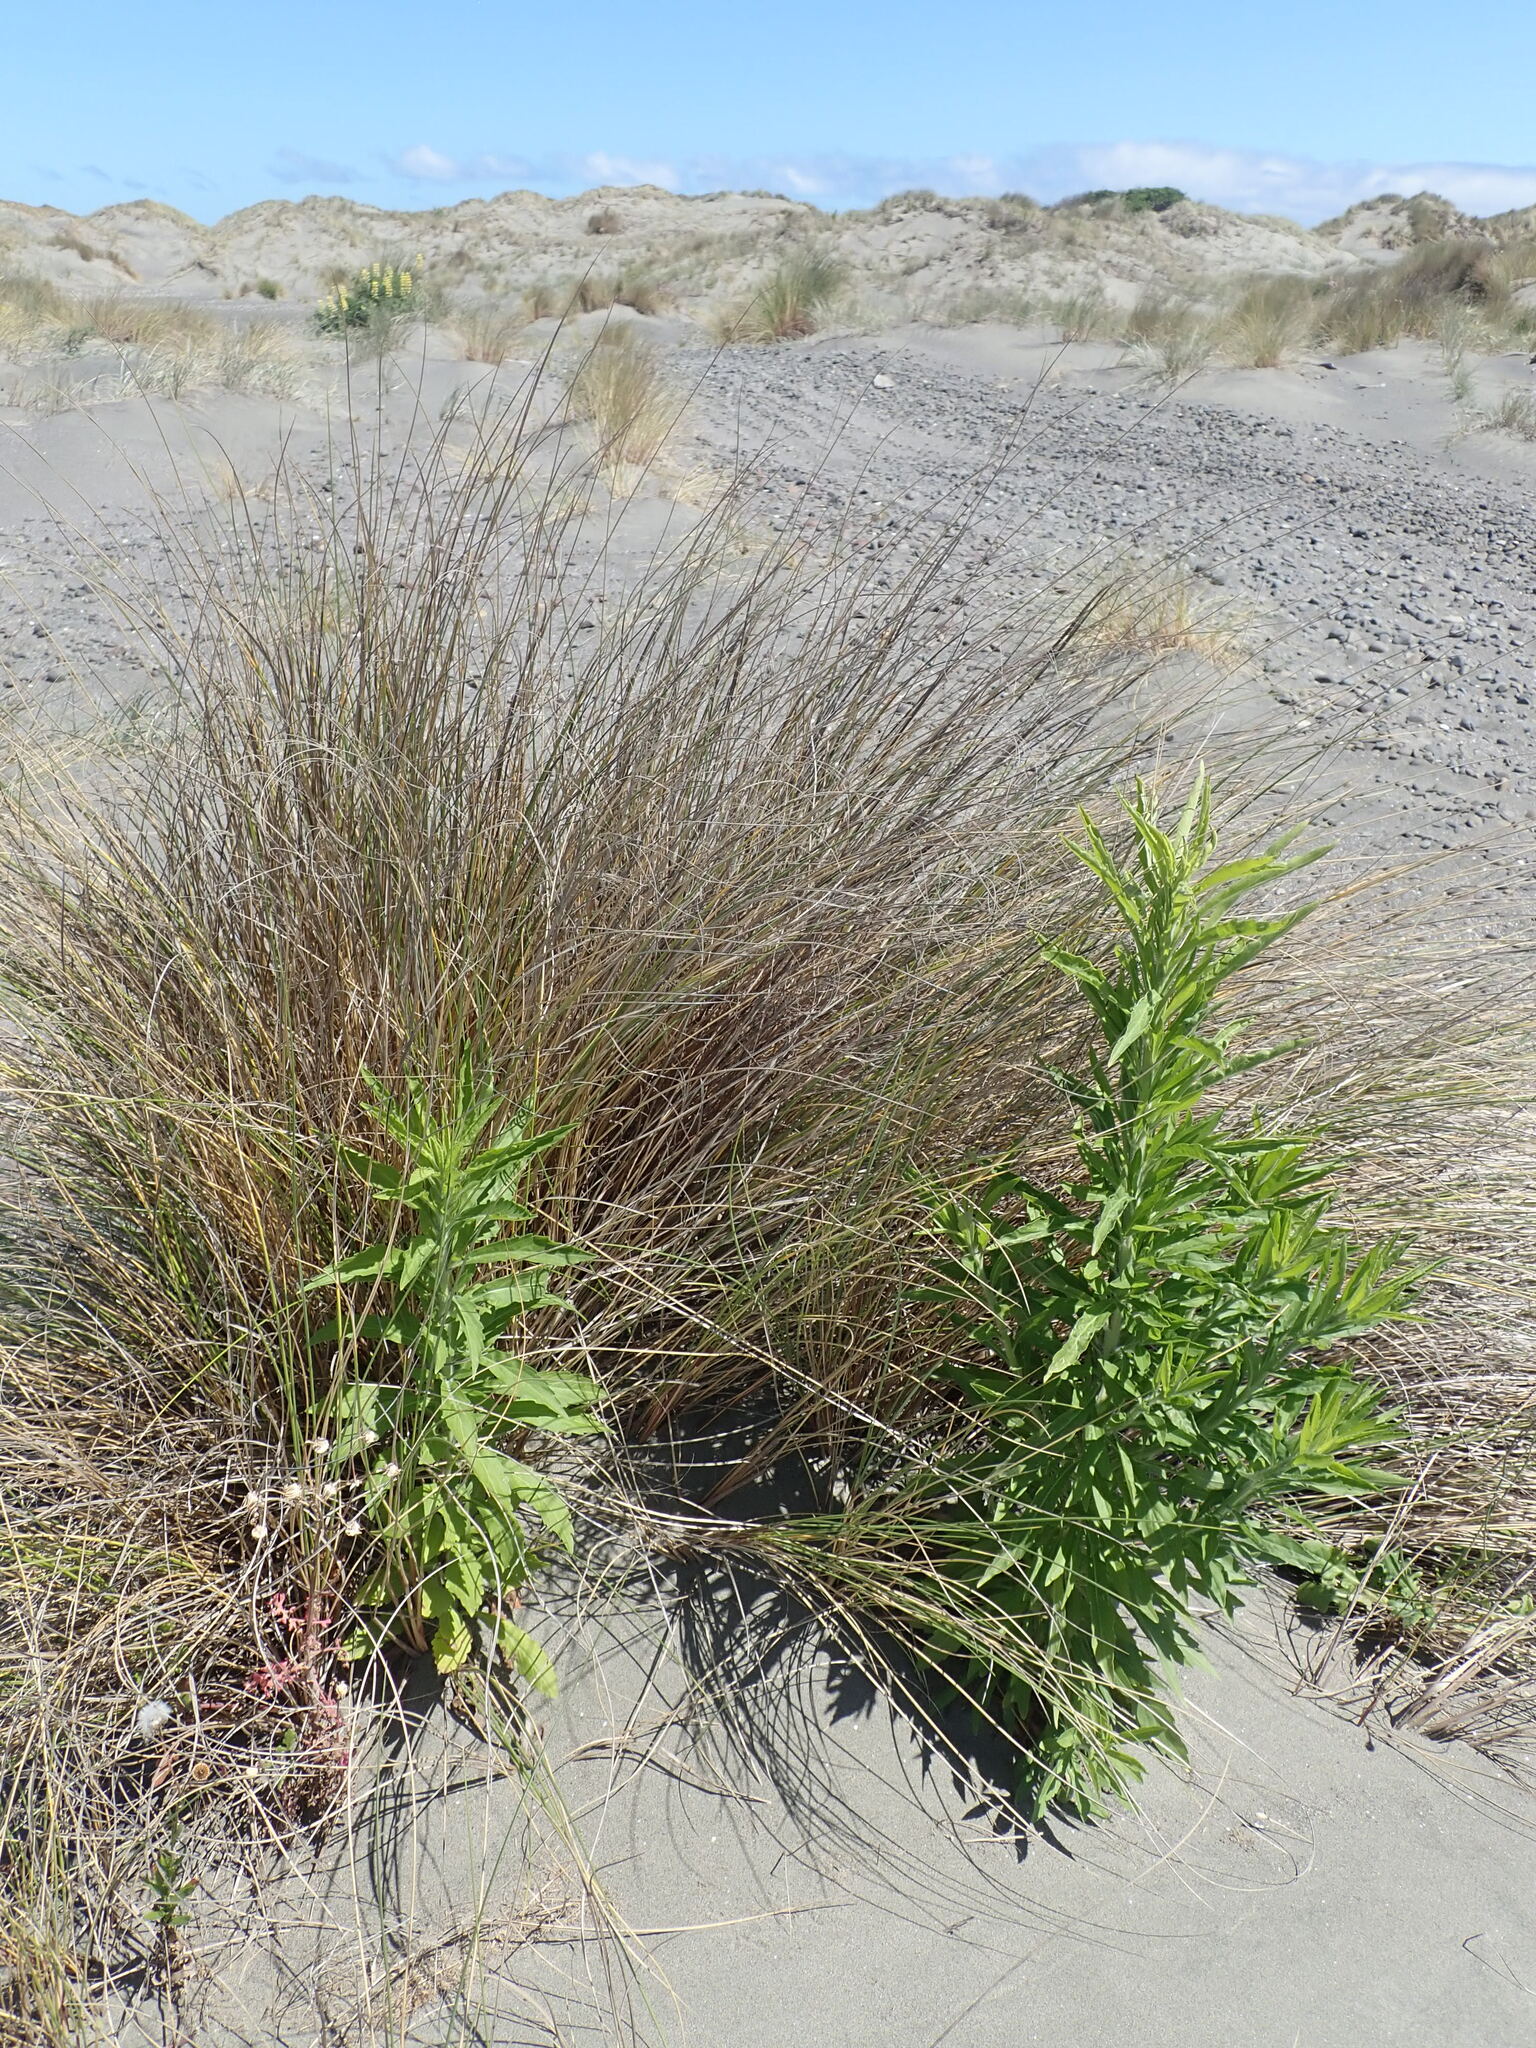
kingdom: Plantae
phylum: Tracheophyta
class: Magnoliopsida
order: Asterales
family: Asteraceae
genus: Erigeron
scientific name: Erigeron sumatrensis
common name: Daisy
